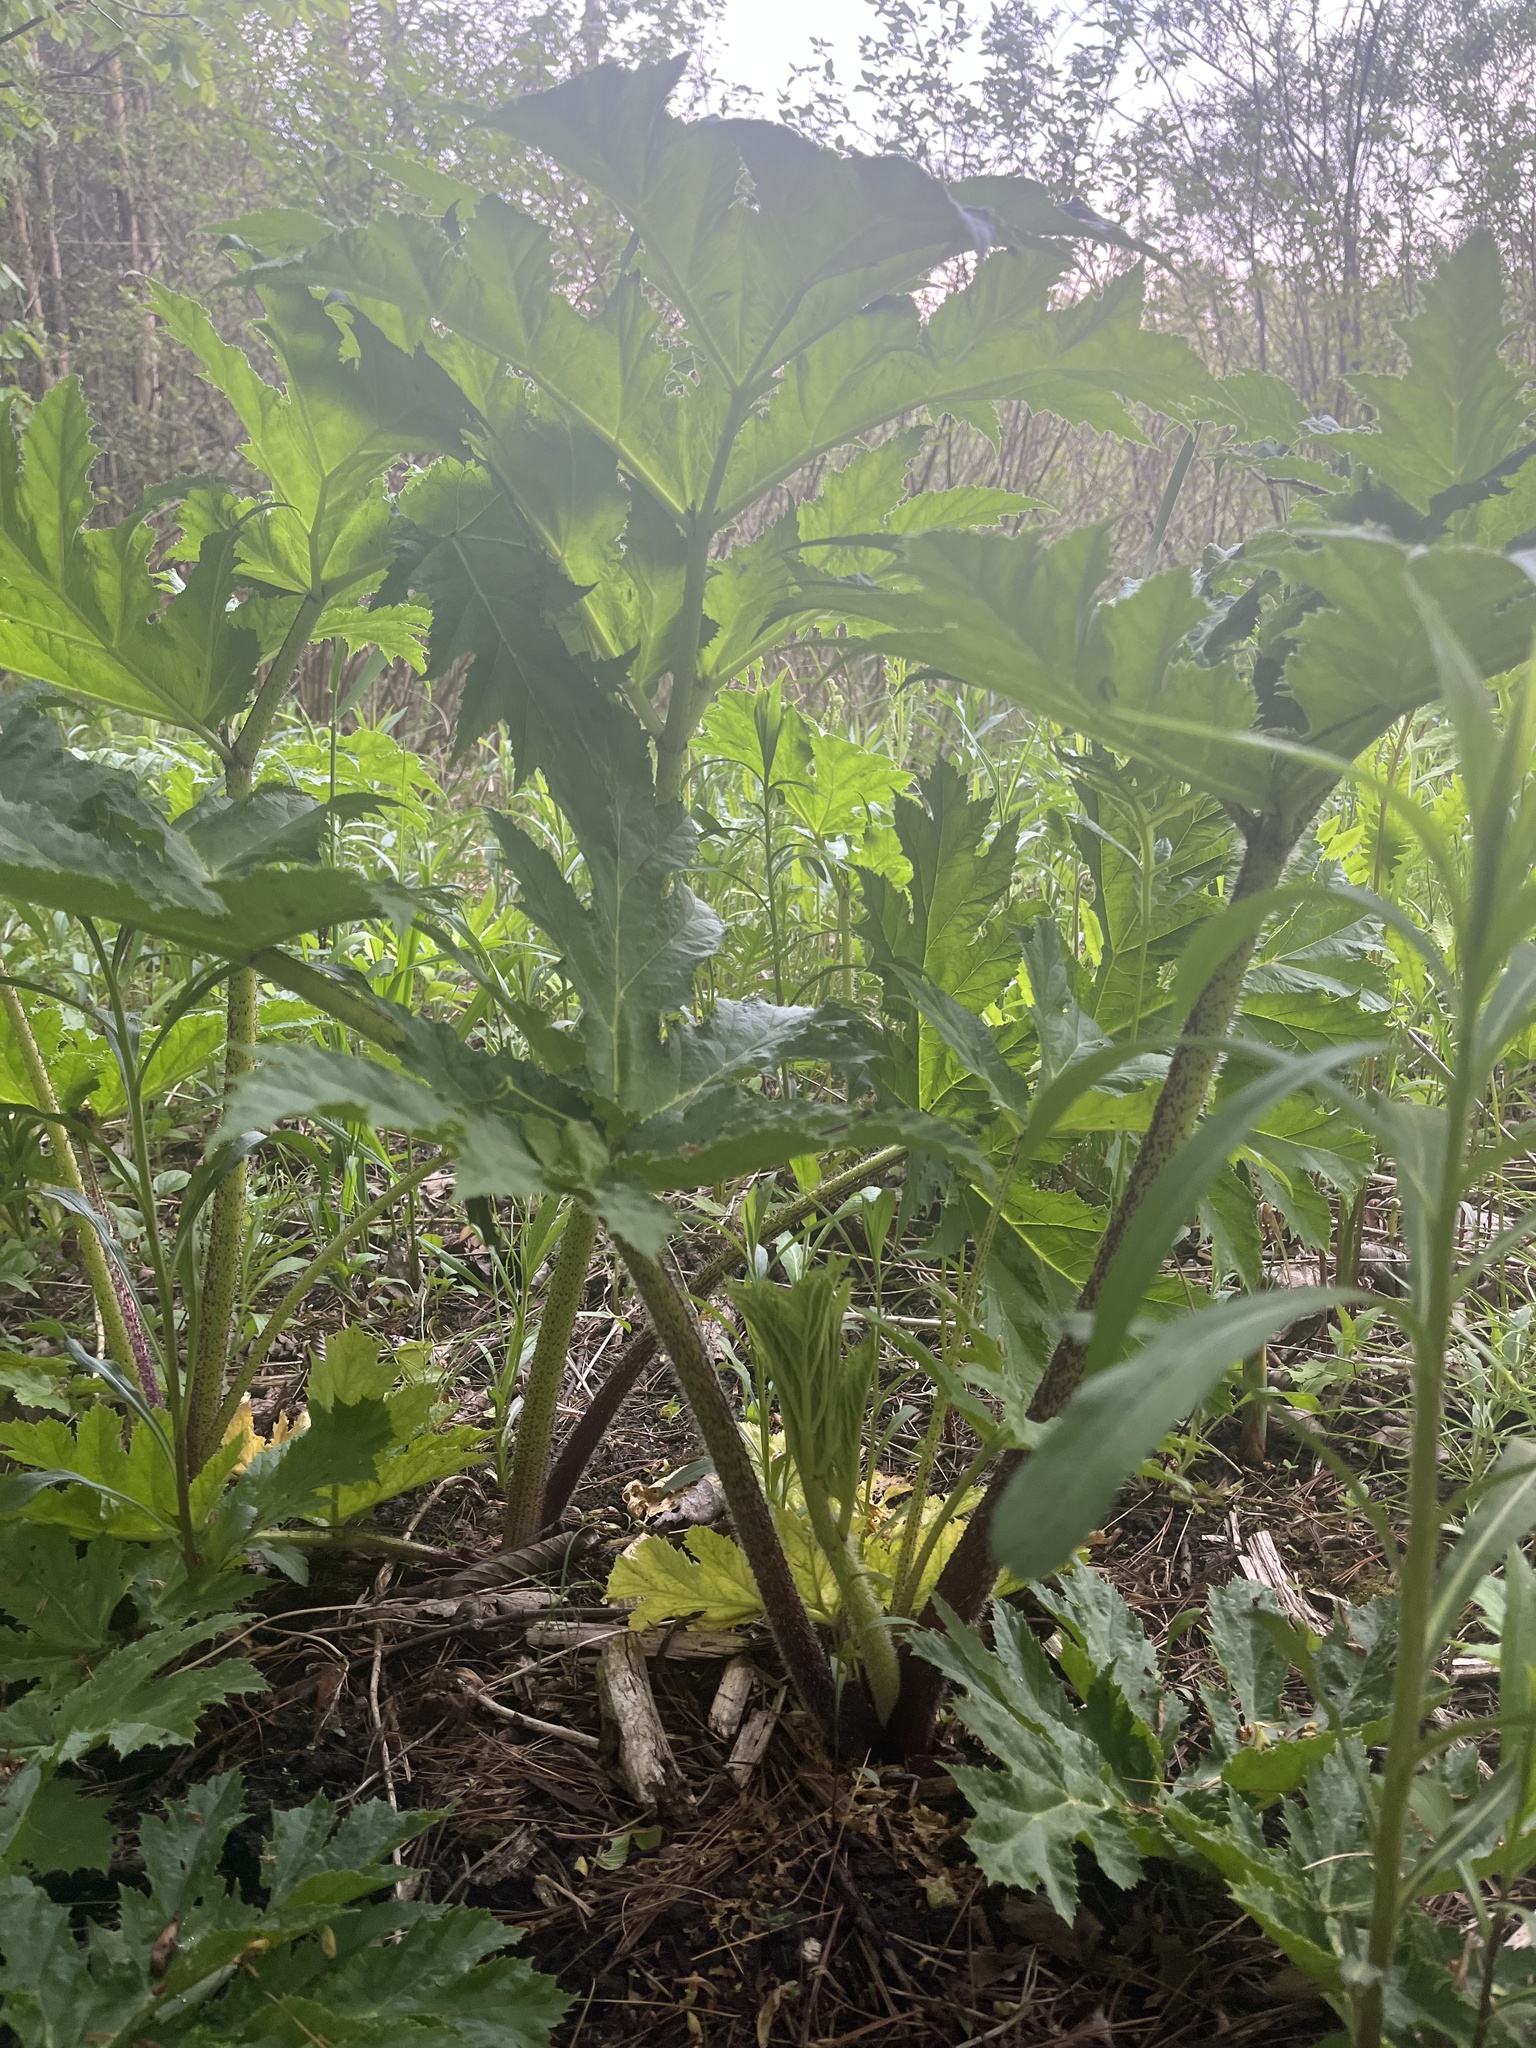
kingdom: Plantae
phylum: Tracheophyta
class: Magnoliopsida
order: Apiales
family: Apiaceae
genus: Heracleum
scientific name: Heracleum mantegazzianum
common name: Giant hogweed
